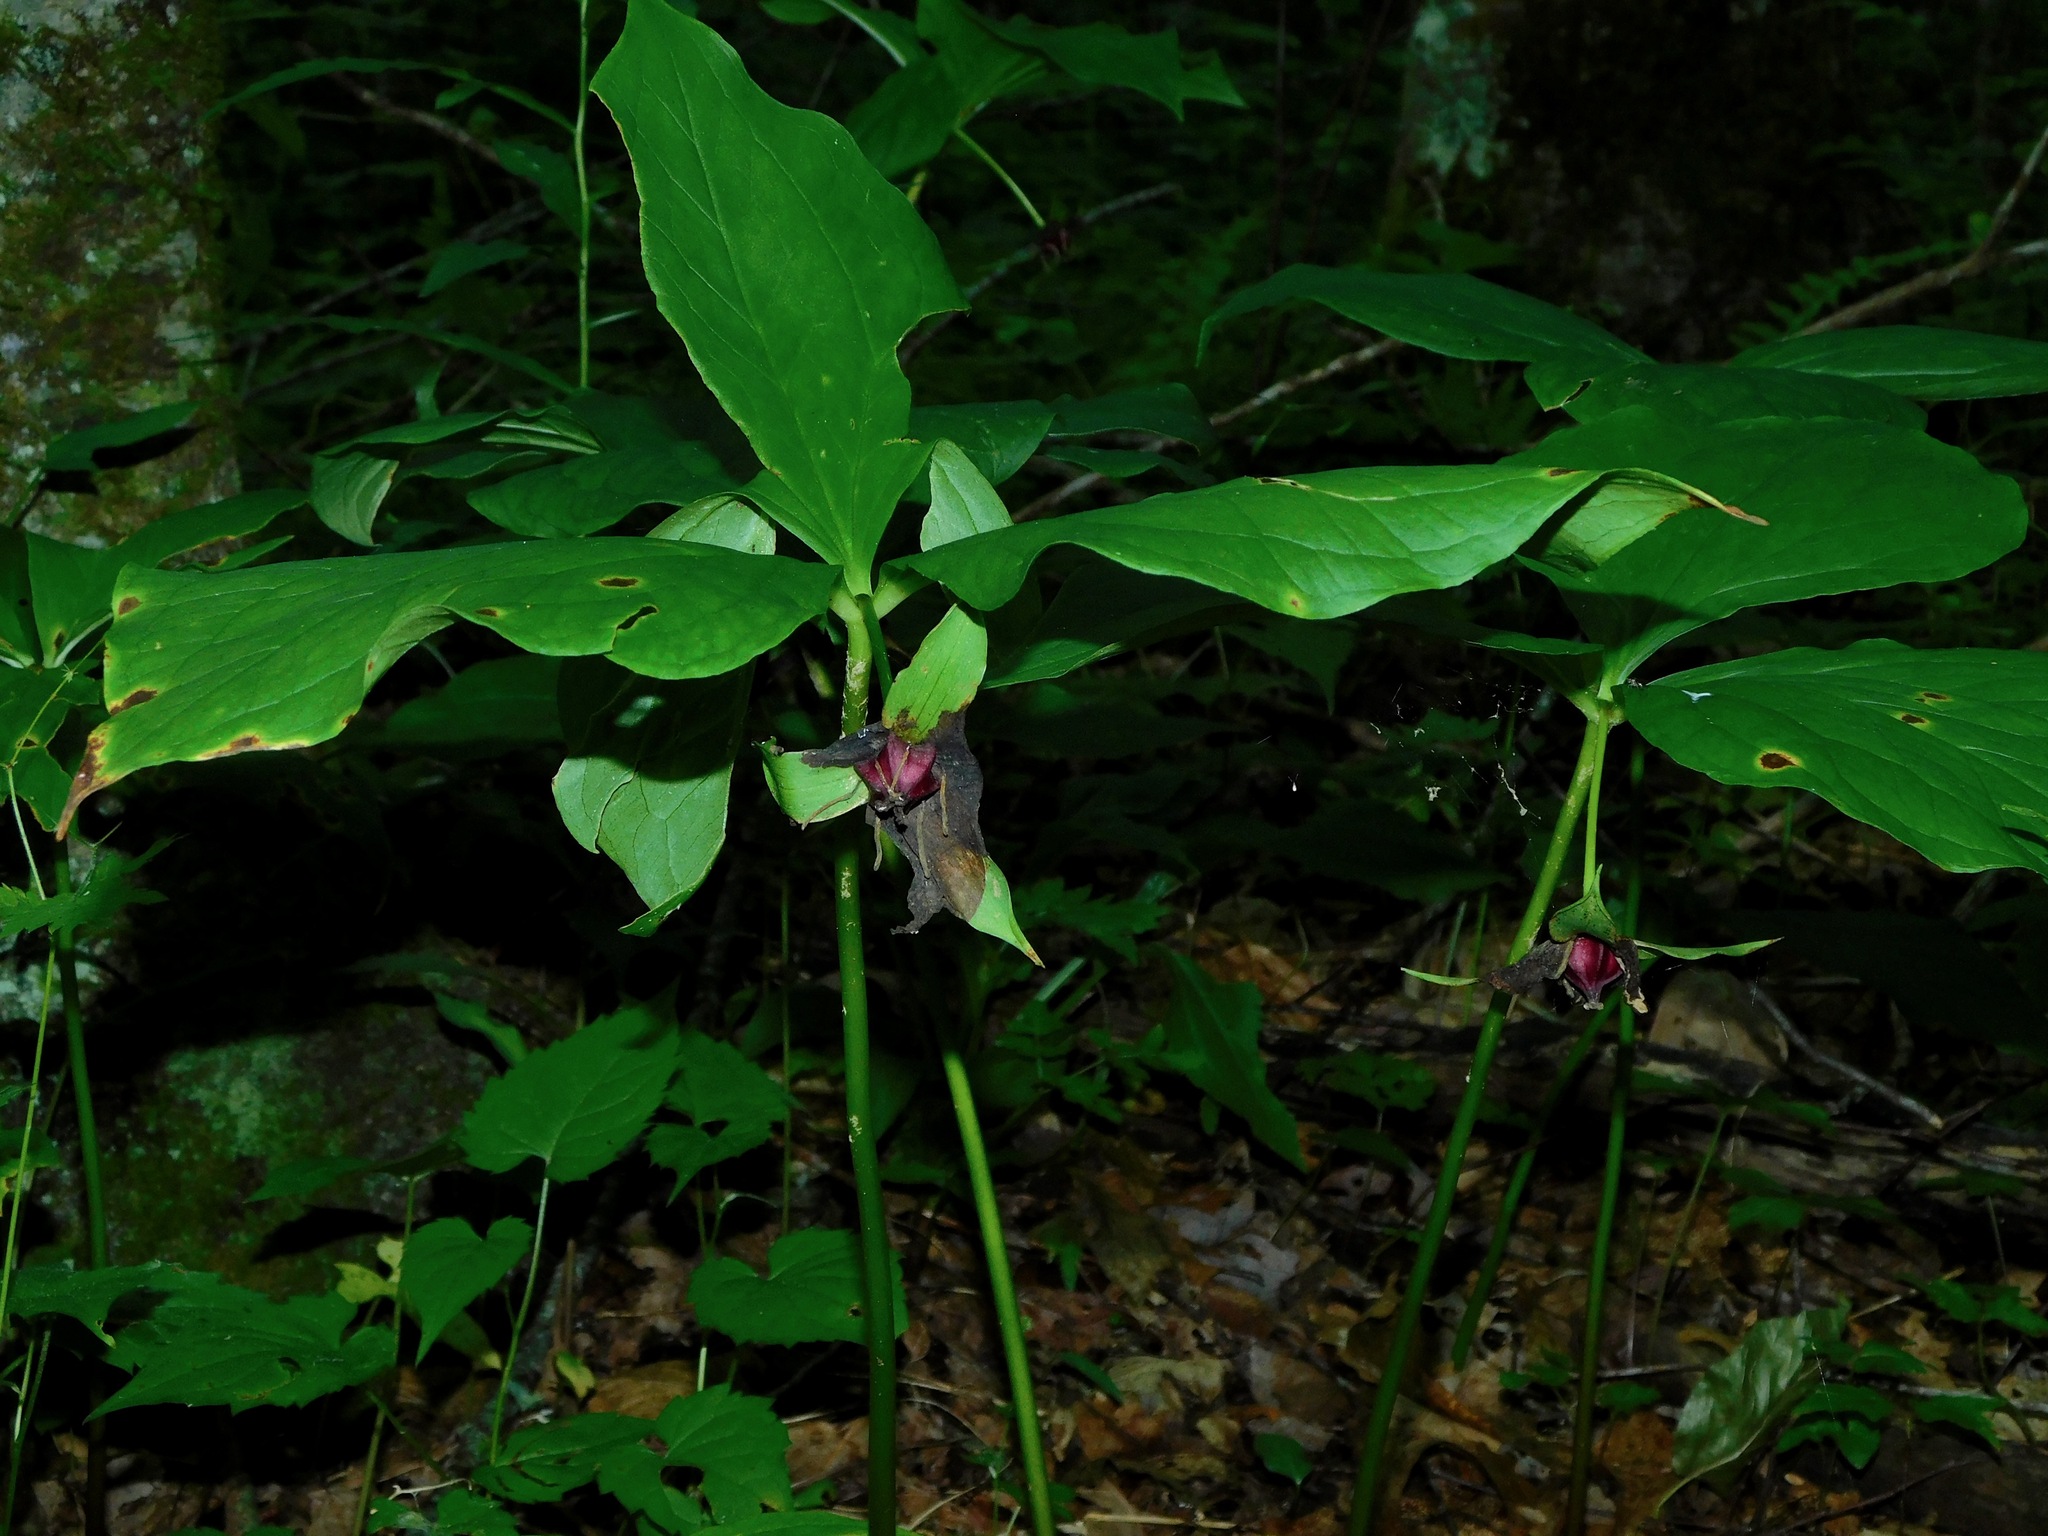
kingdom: Plantae
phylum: Tracheophyta
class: Liliopsida
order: Liliales
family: Melanthiaceae
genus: Trillium
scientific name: Trillium vaseyi
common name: Sweet trillium
